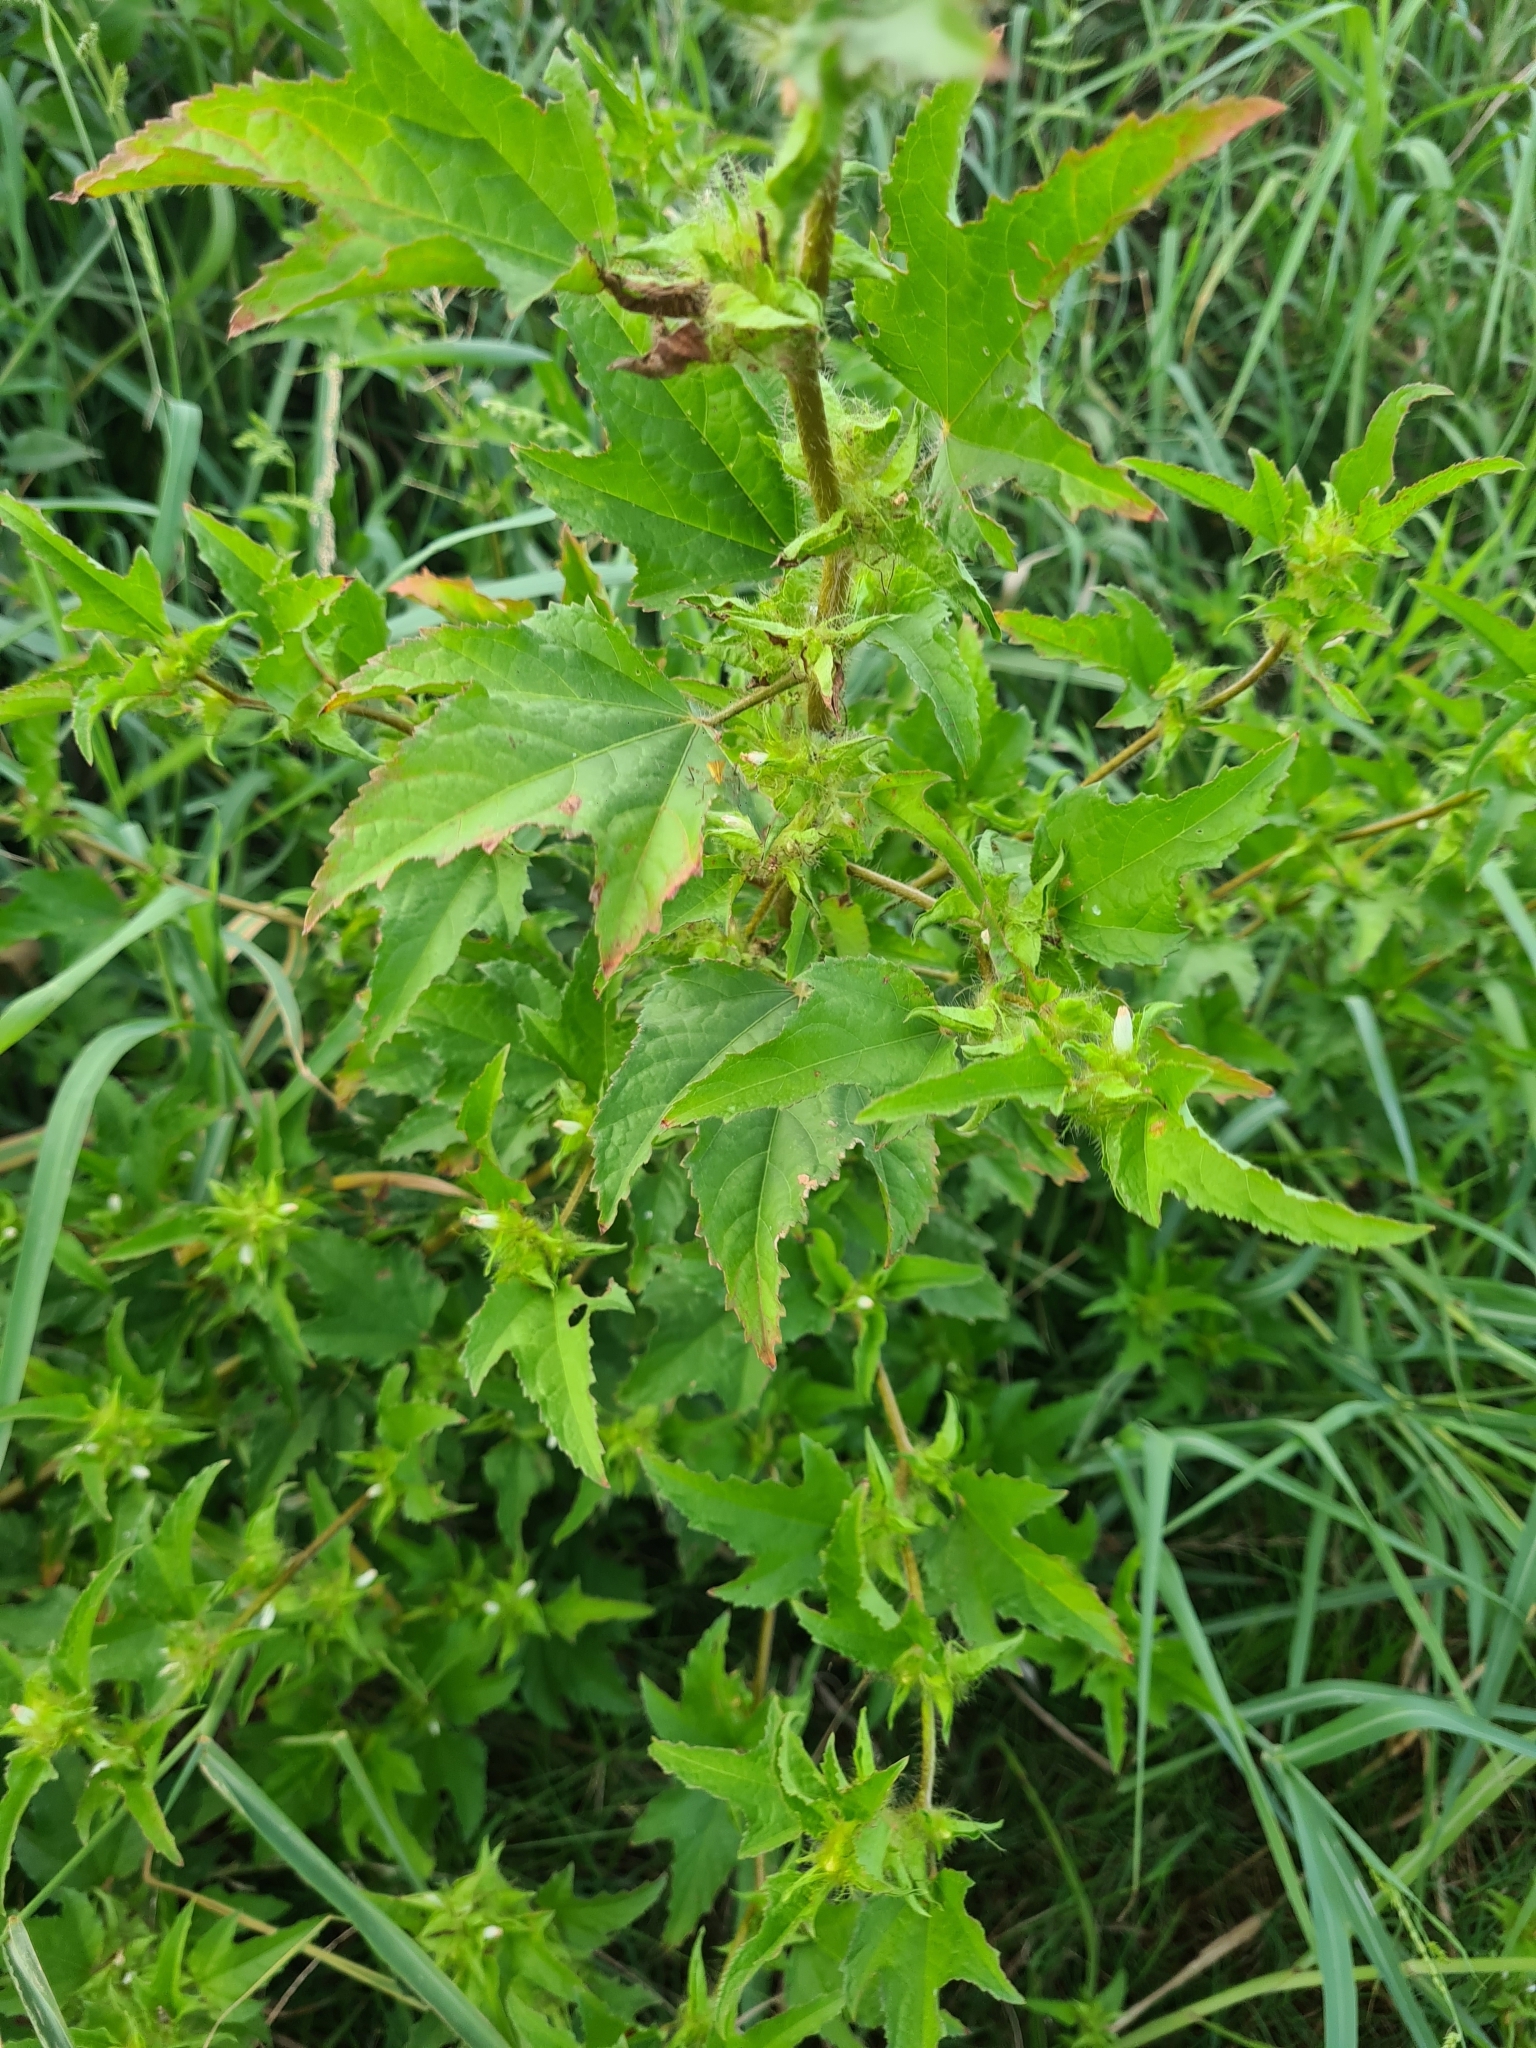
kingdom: Plantae
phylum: Tracheophyta
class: Magnoliopsida
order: Malvales
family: Malvaceae
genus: Malachra
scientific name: Malachra fasciata
